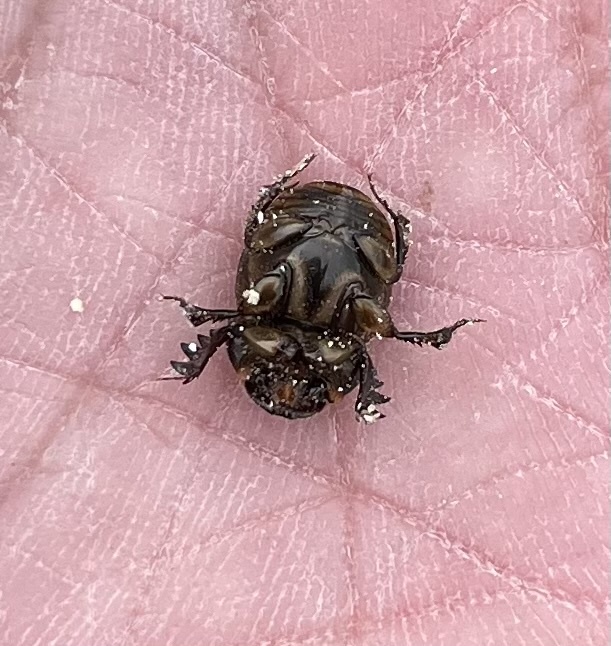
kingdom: Animalia
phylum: Arthropoda
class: Insecta
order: Coleoptera
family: Scarabaeidae
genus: Digitonthophagus
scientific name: Digitonthophagus gazella
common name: Brown dung beetle
